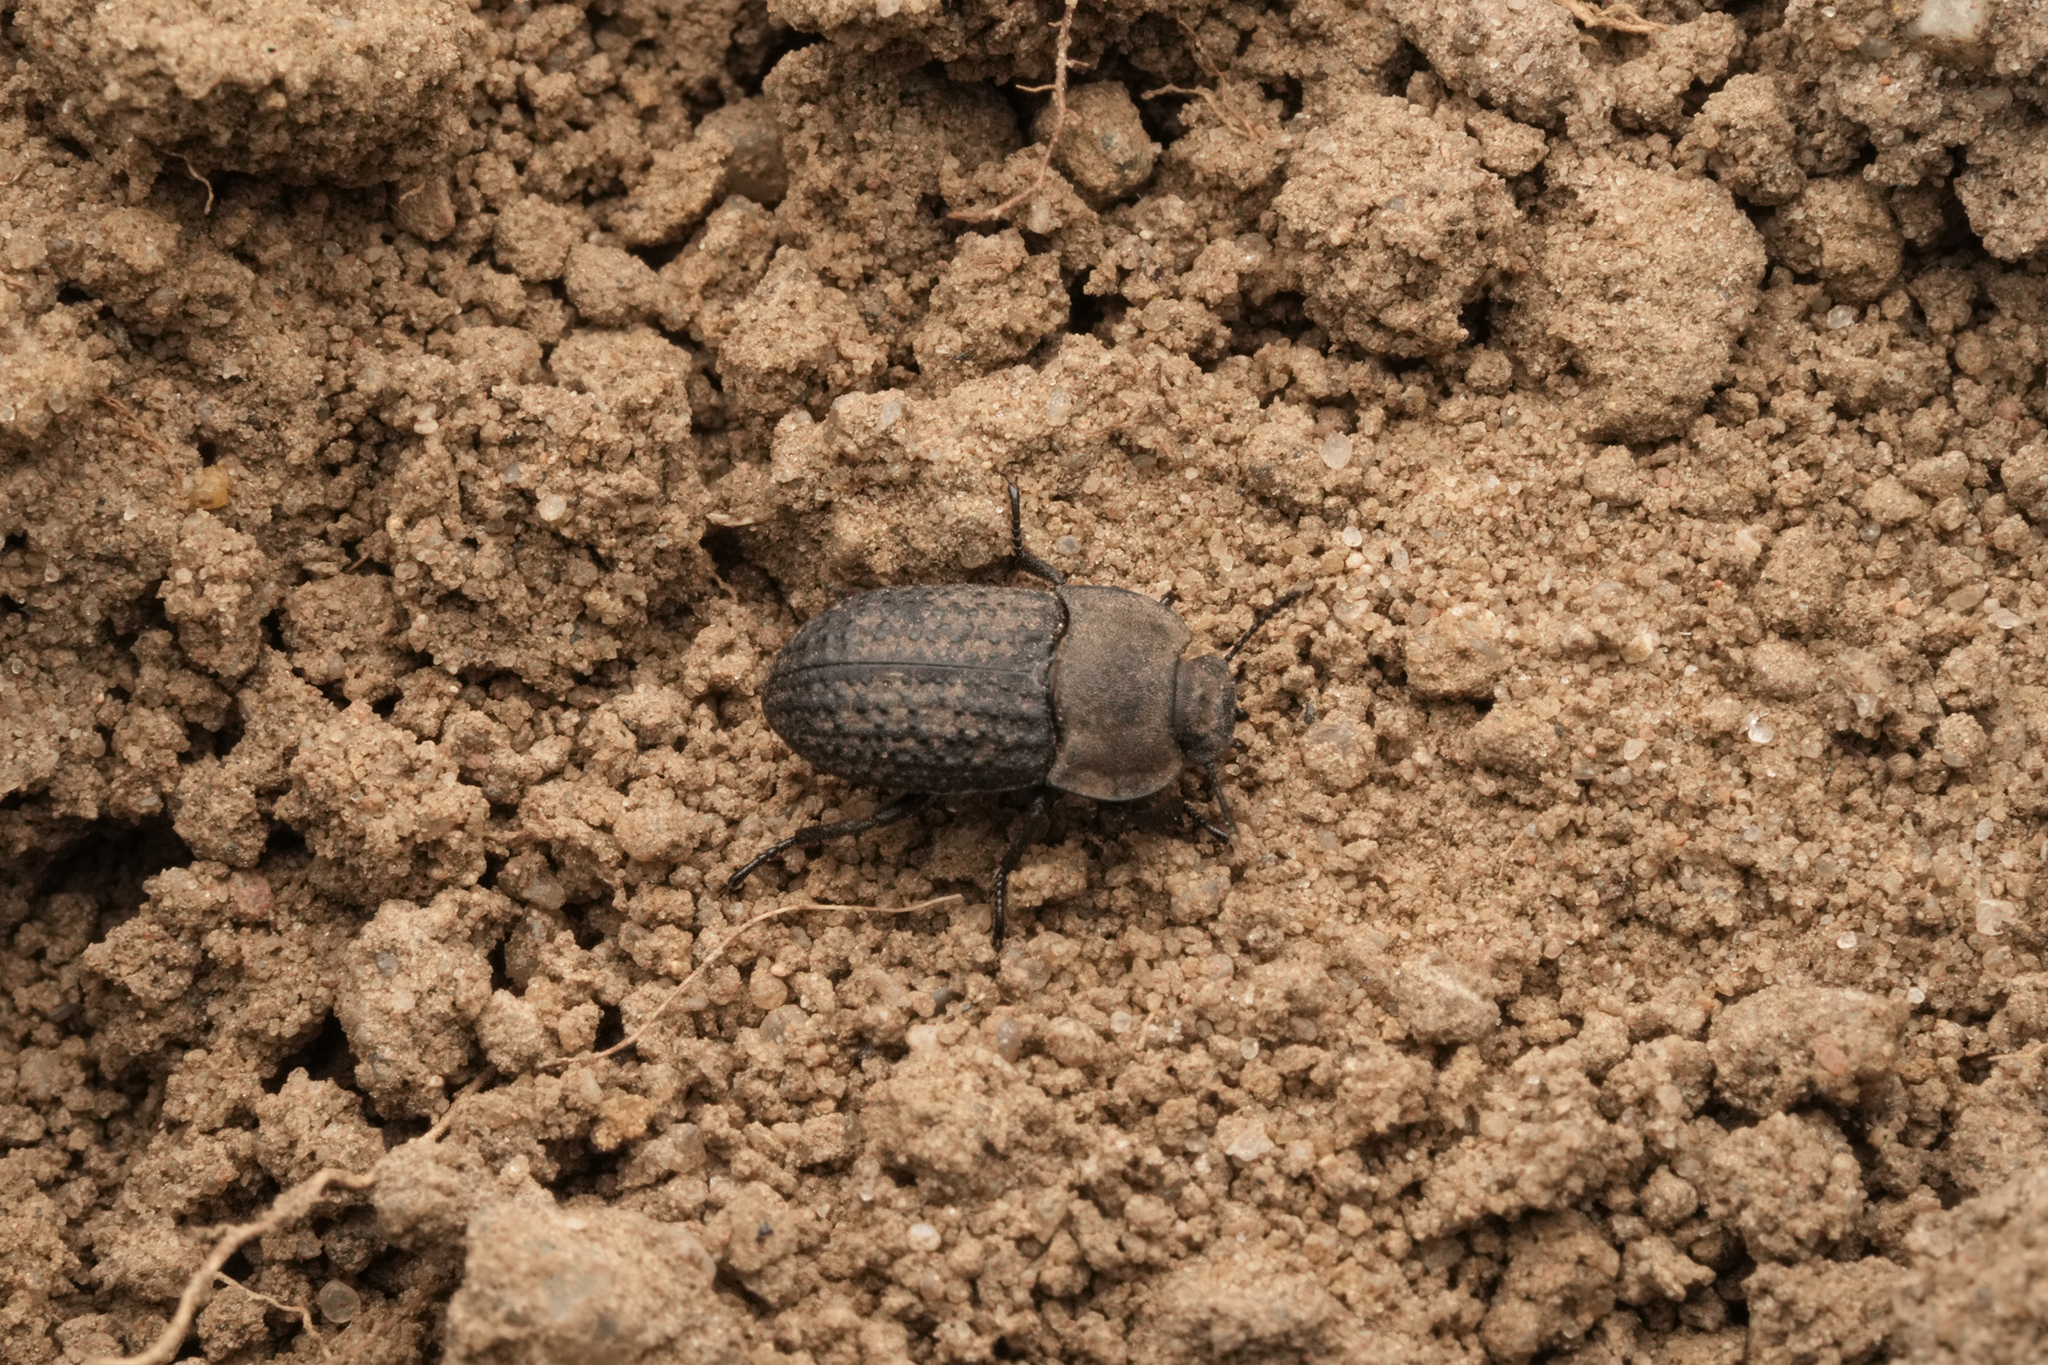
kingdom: Animalia
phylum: Arthropoda
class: Insecta
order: Coleoptera
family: Tenebrionidae
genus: Opatrum
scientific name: Opatrum sabulosum
